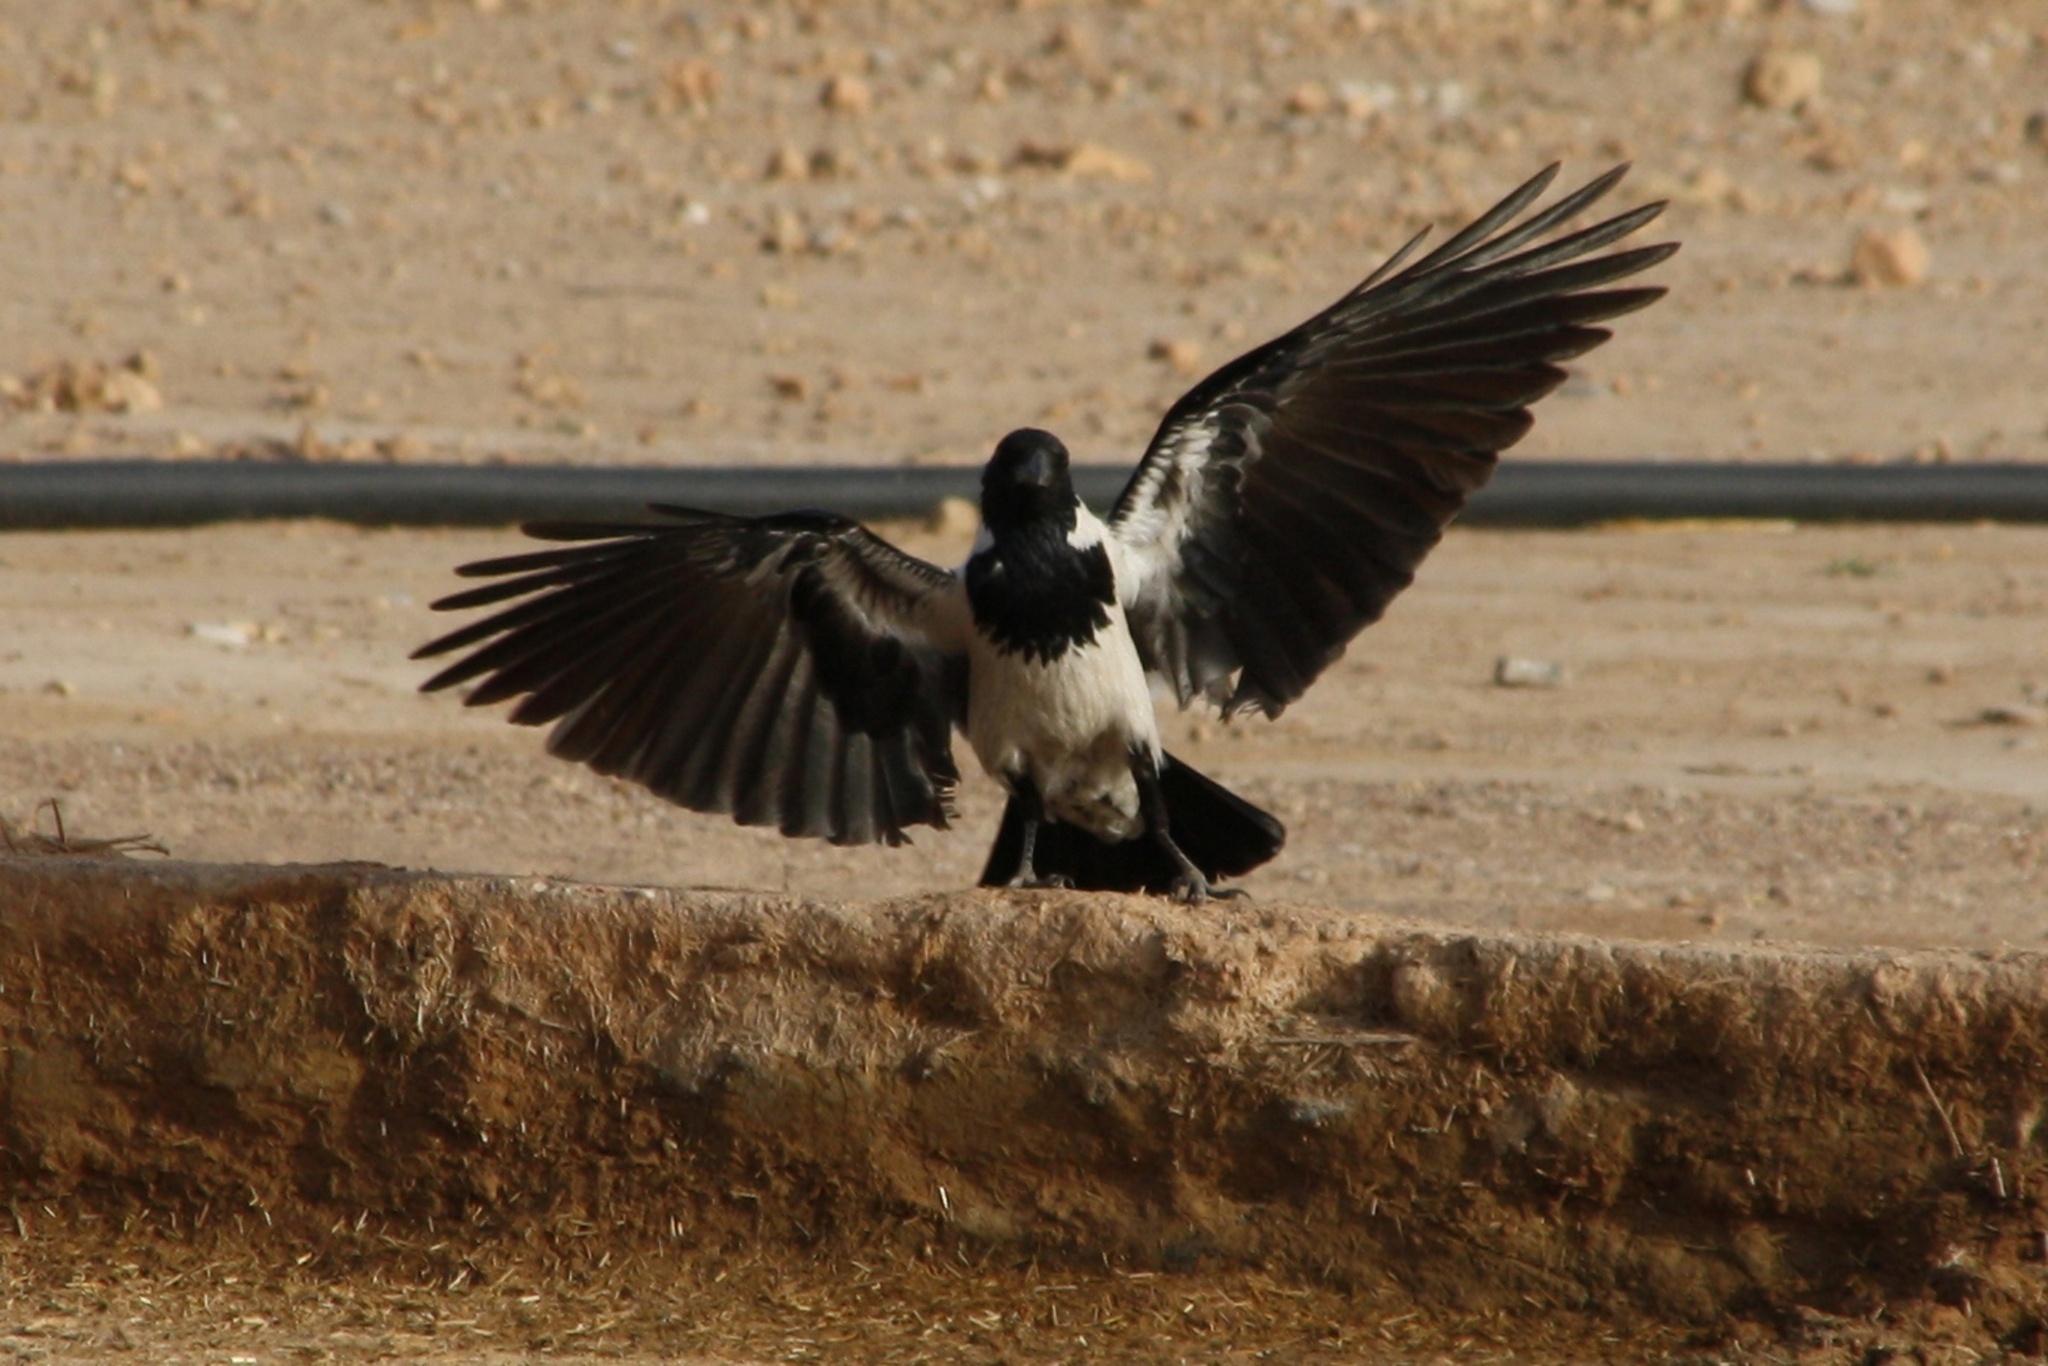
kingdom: Animalia
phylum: Chordata
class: Aves
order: Passeriformes
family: Corvidae
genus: Corvus
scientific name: Corvus cornix
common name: Hooded crow
